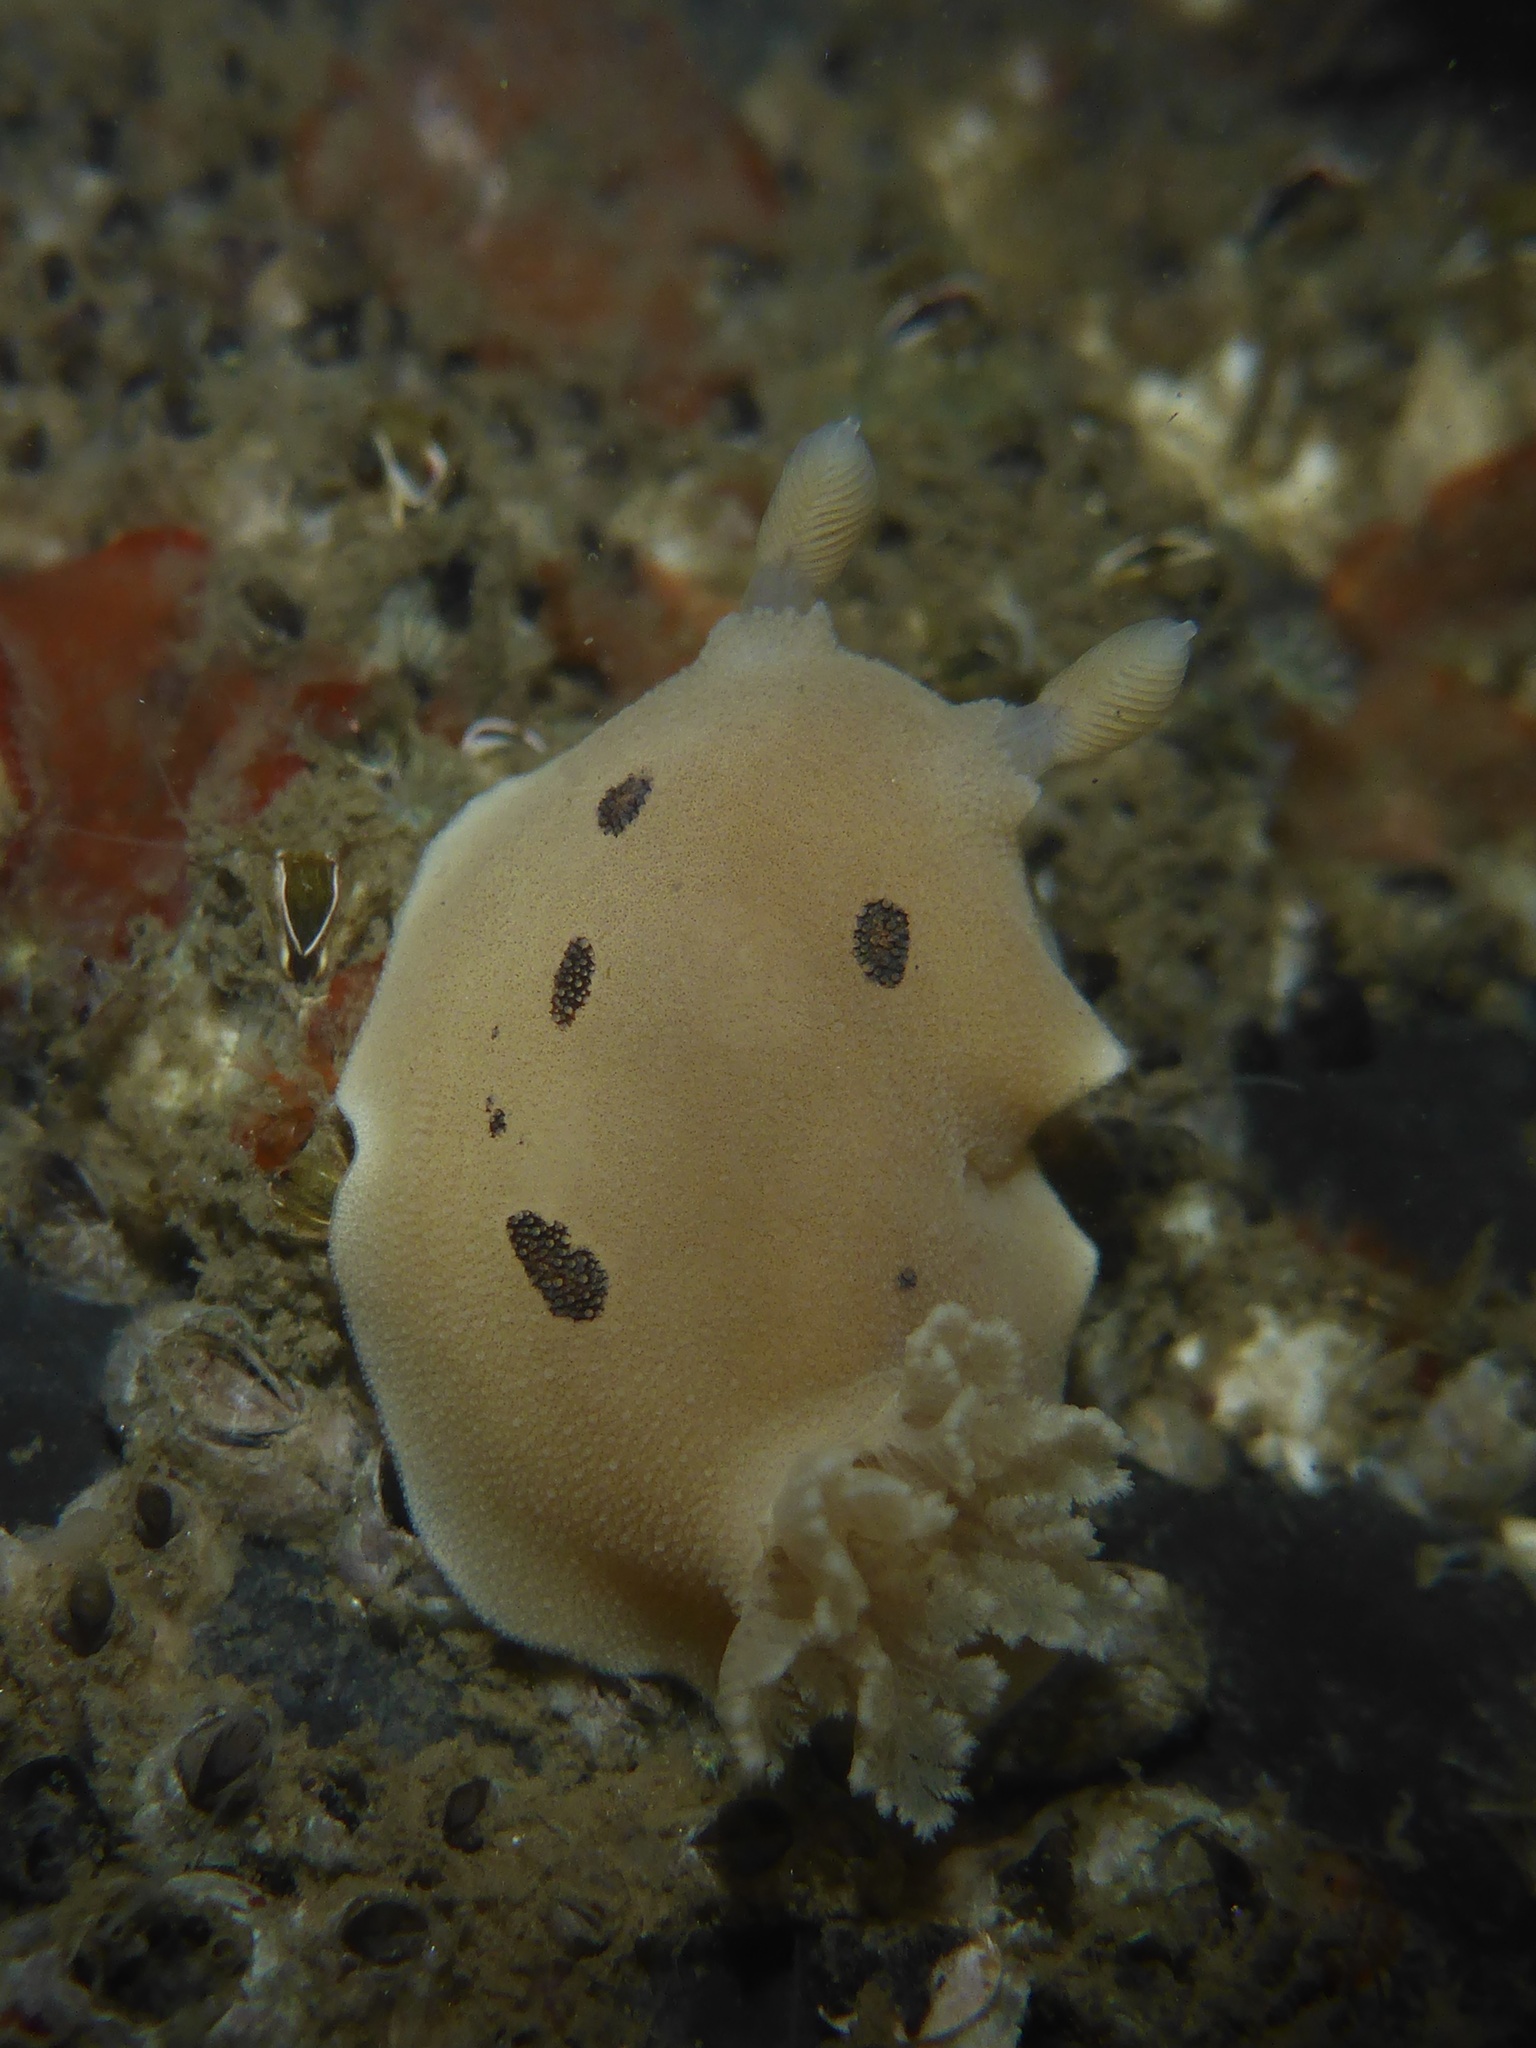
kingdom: Animalia
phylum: Mollusca
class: Gastropoda
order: Nudibranchia
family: Discodorididae
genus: Diaulula
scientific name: Diaulula sandiegensis
